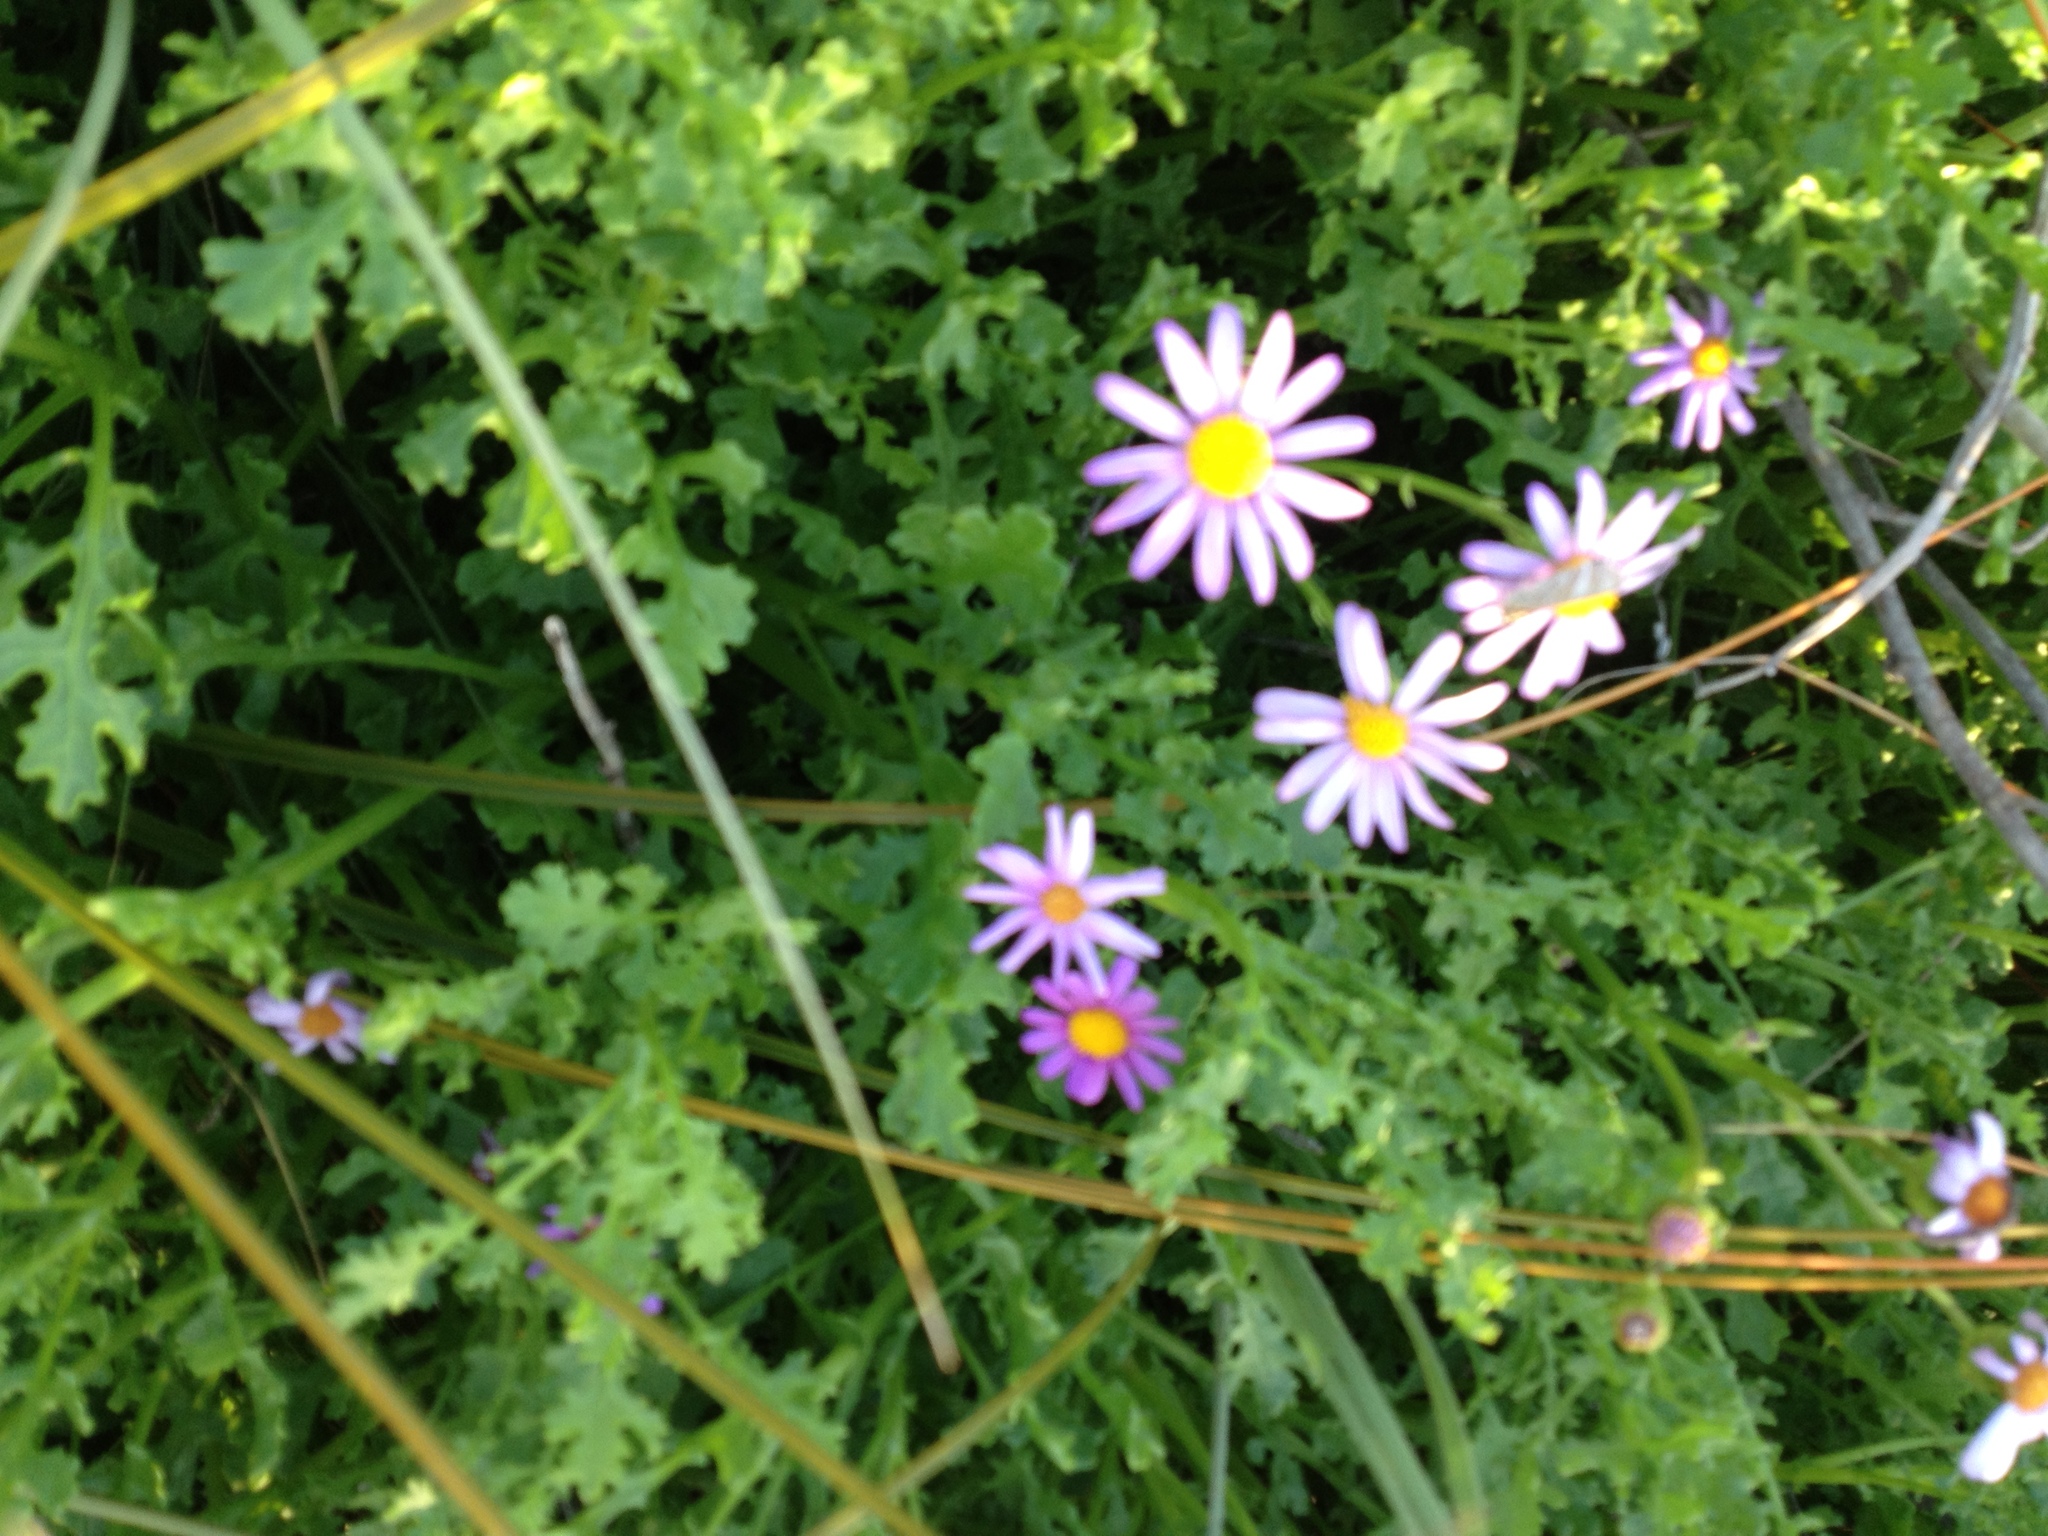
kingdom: Plantae
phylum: Tracheophyta
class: Magnoliopsida
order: Asterales
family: Asteraceae
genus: Senecio
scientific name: Senecio elegans
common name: Purple groundsel
